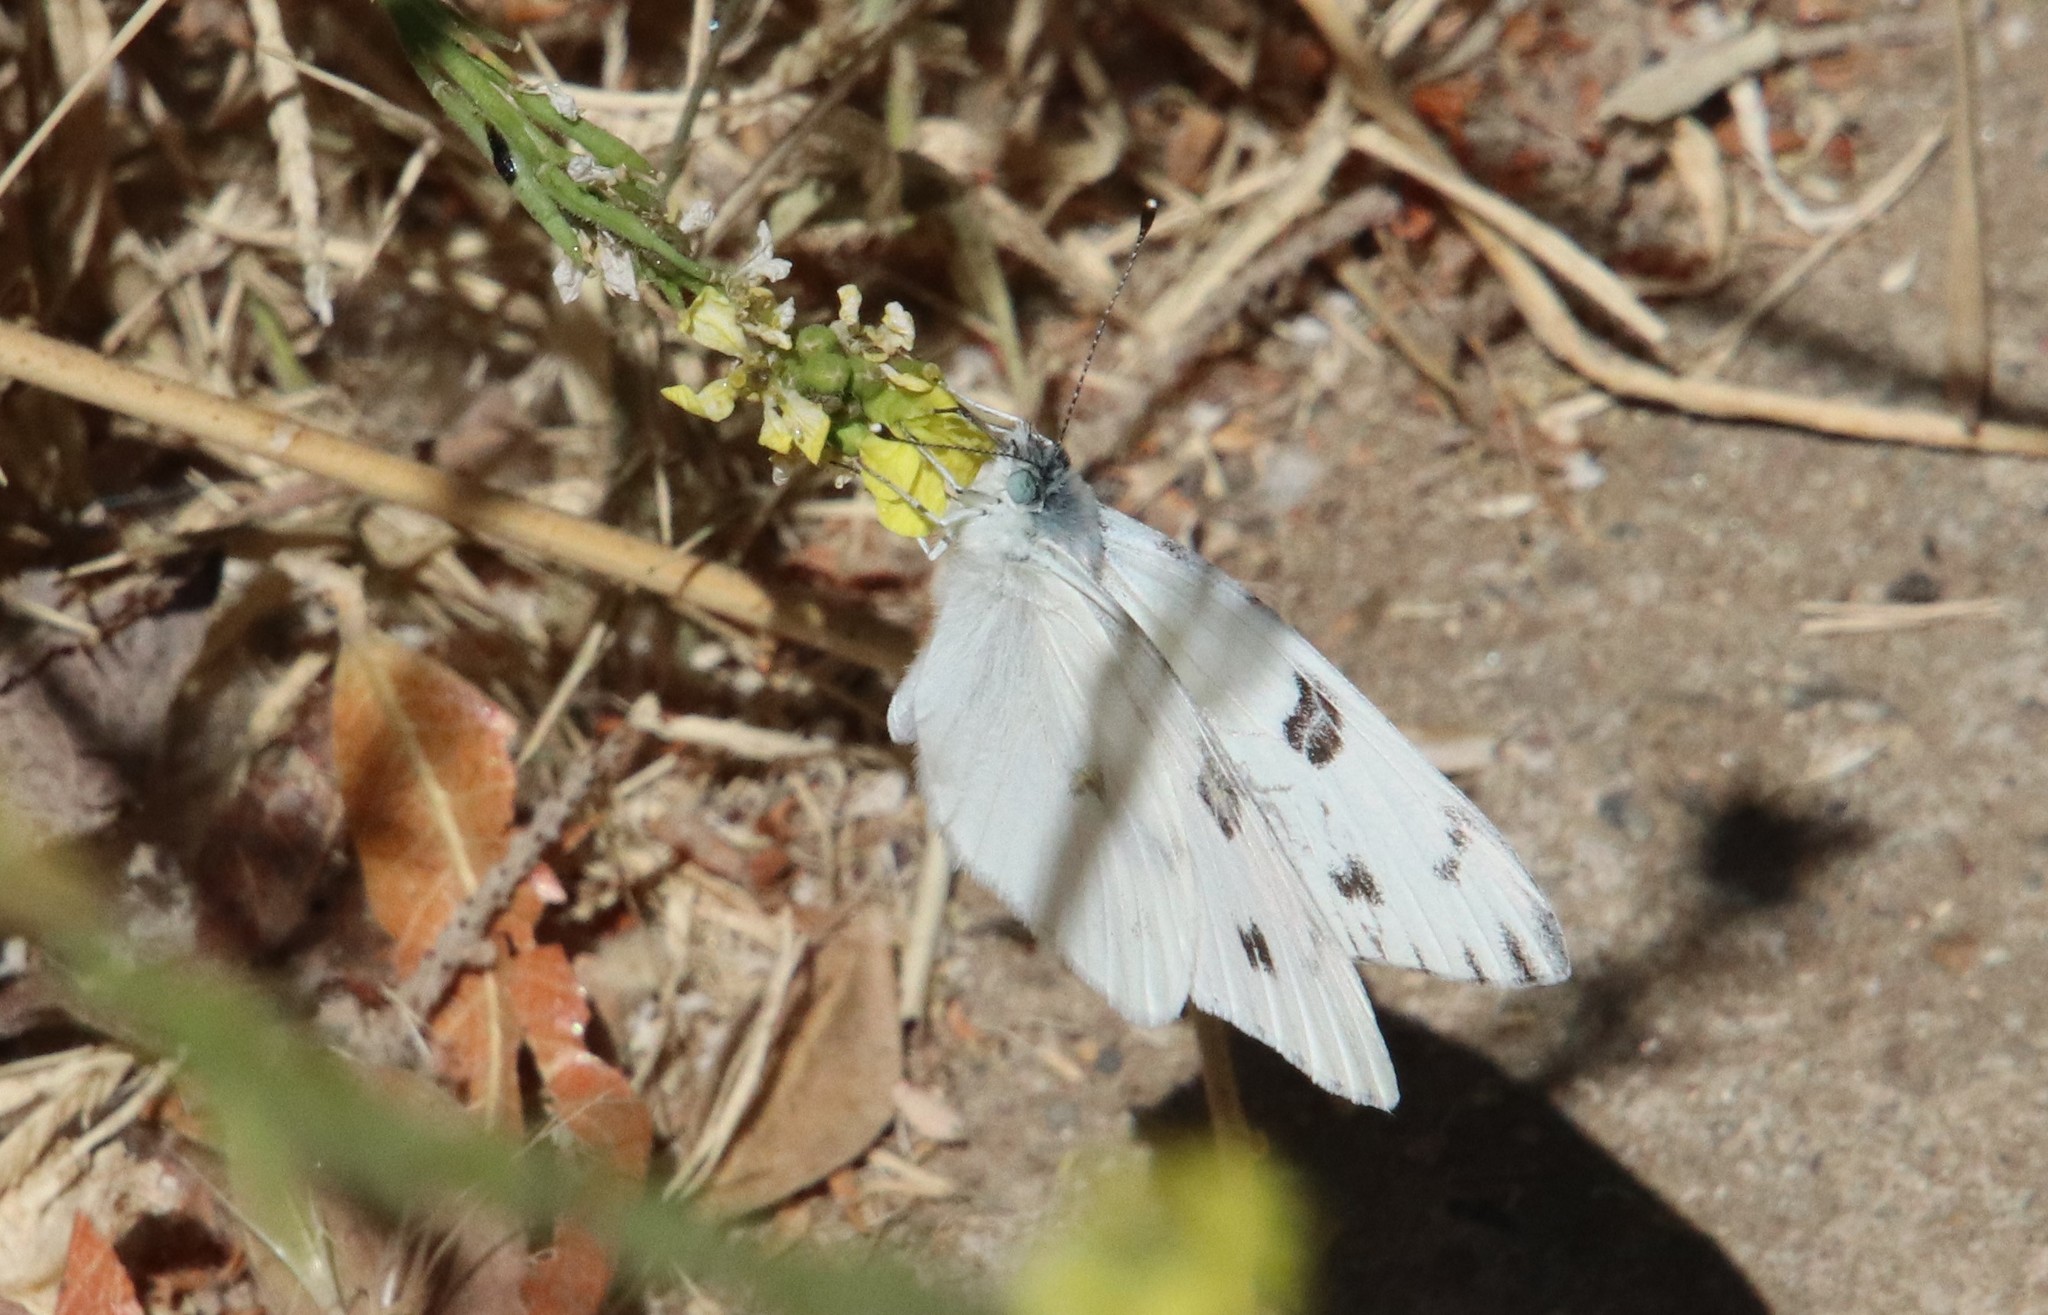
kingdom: Animalia
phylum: Arthropoda
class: Insecta
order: Lepidoptera
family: Pieridae
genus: Pontia
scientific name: Pontia protodice
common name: Checkered white
